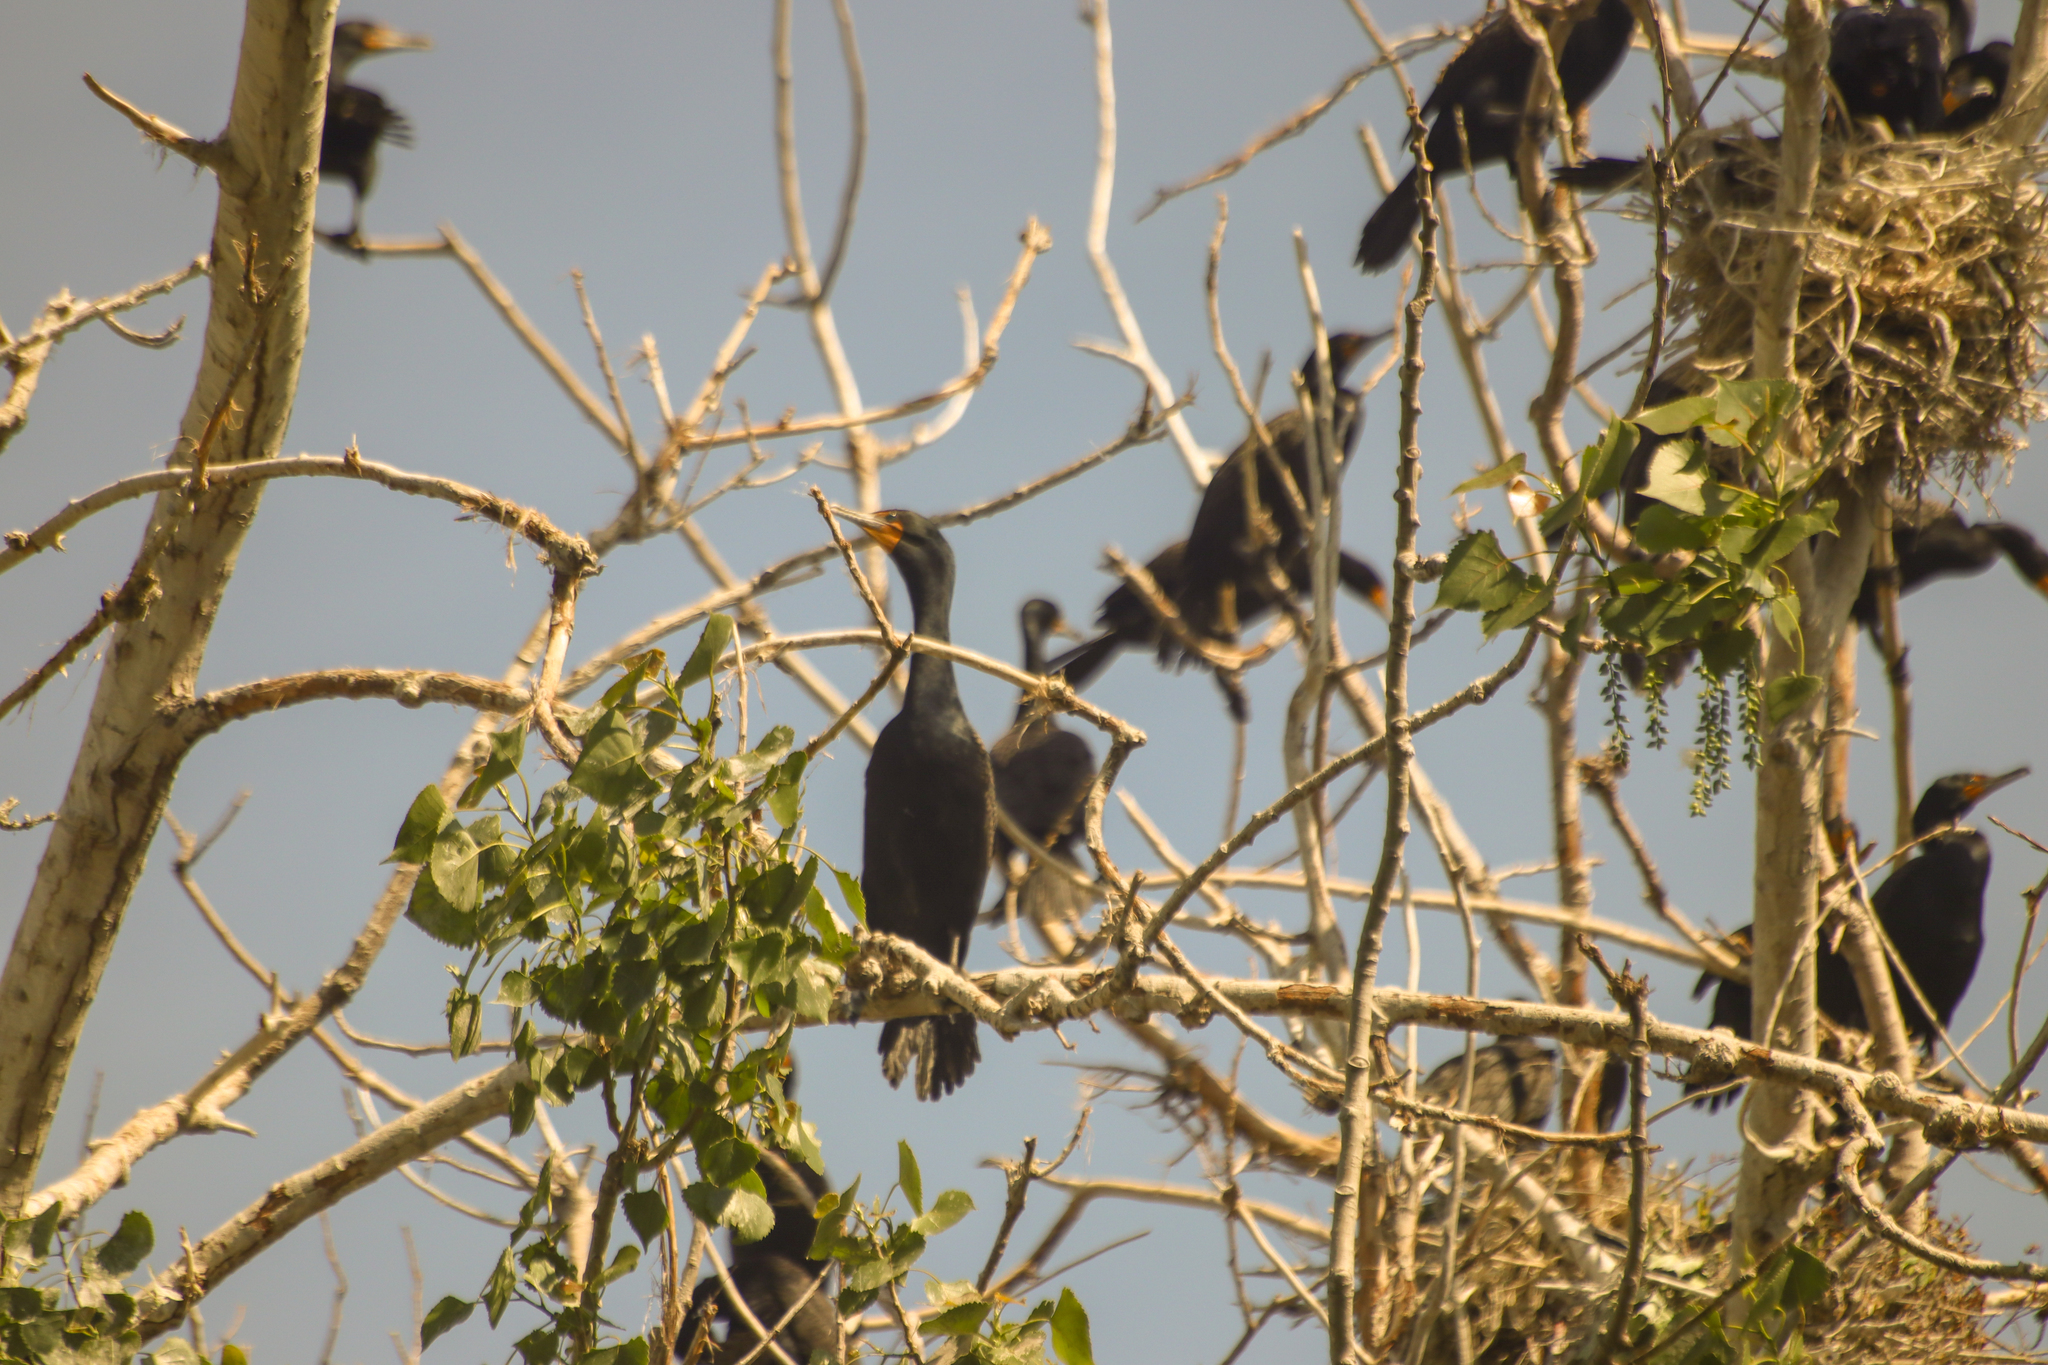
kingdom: Animalia
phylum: Chordata
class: Aves
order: Suliformes
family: Phalacrocoracidae
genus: Phalacrocorax
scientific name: Phalacrocorax auritus
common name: Double-crested cormorant
